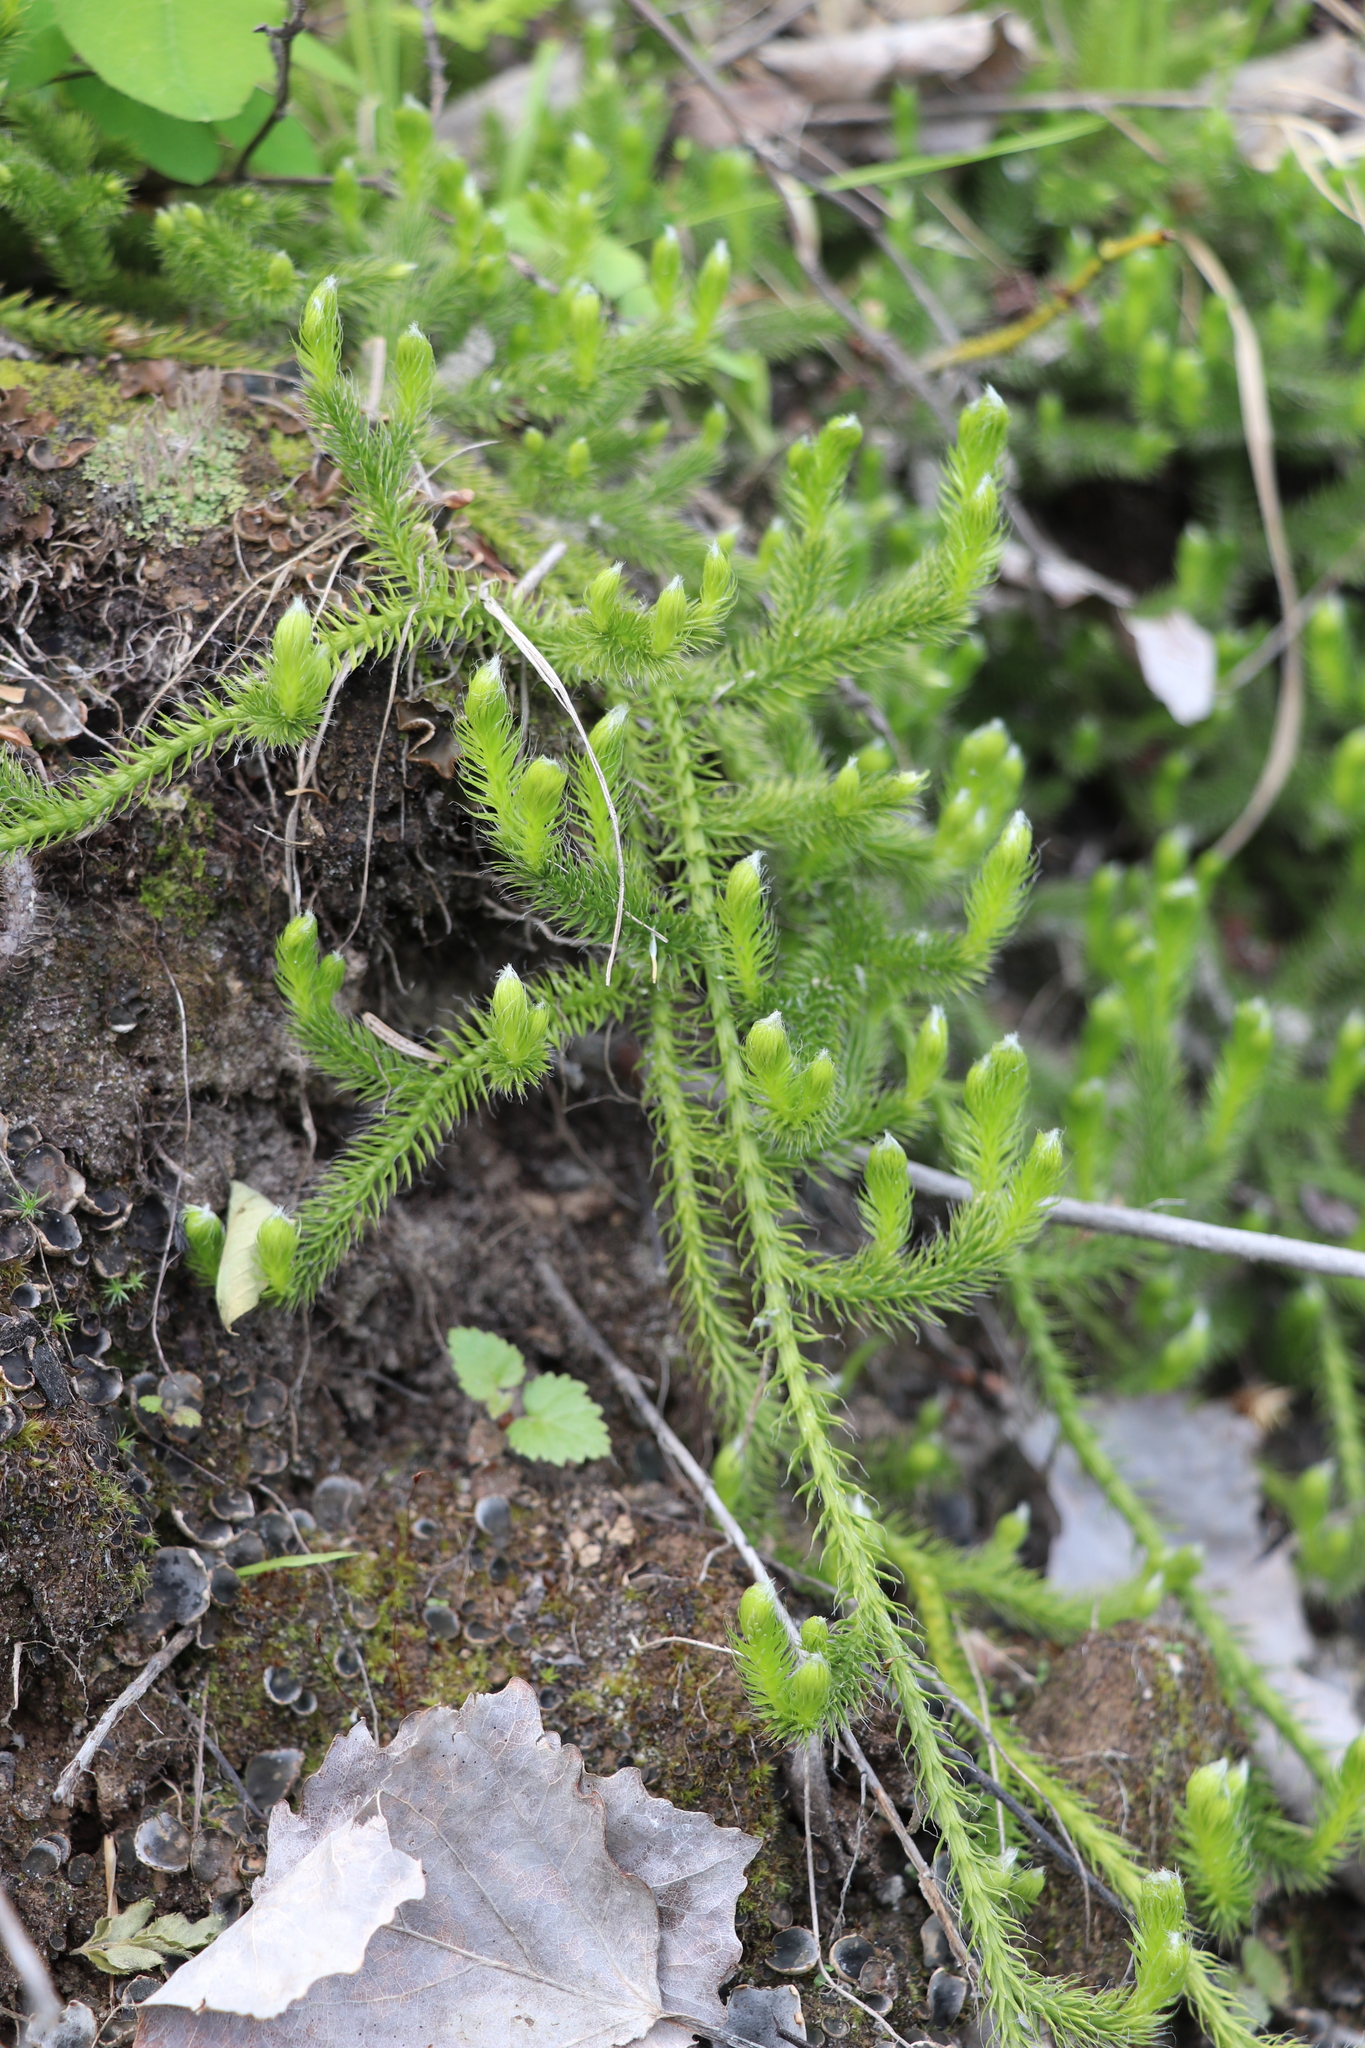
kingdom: Plantae
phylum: Tracheophyta
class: Lycopodiopsida
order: Lycopodiales
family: Lycopodiaceae
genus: Lycopodium
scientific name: Lycopodium clavatum
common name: Stag's-horn clubmoss
